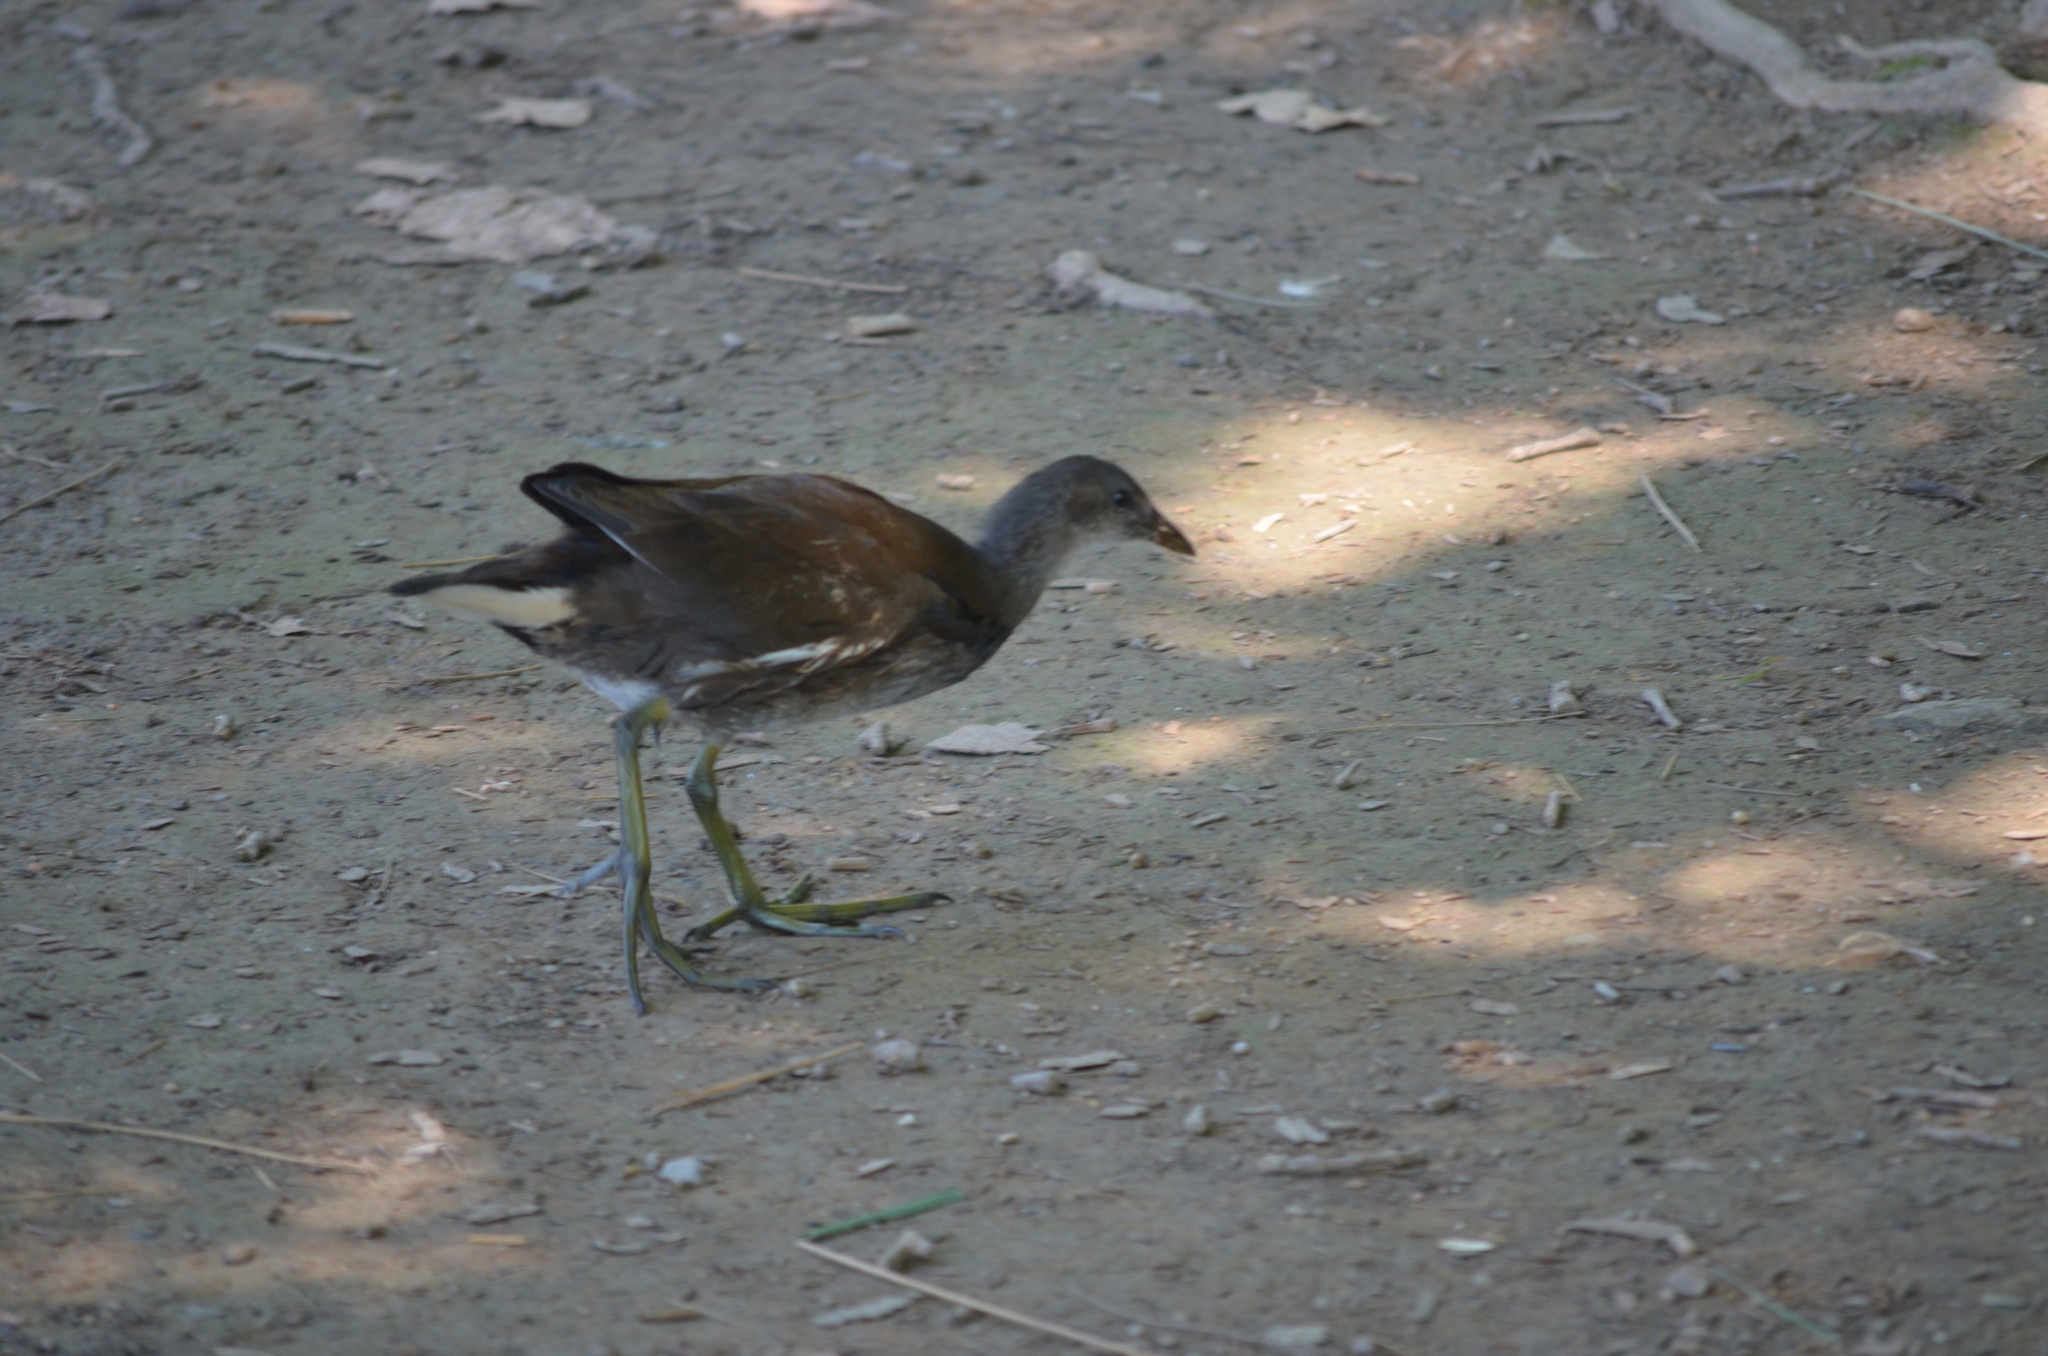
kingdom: Animalia
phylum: Chordata
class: Aves
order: Gruiformes
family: Rallidae
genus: Gallinula
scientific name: Gallinula chloropus
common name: Common moorhen
